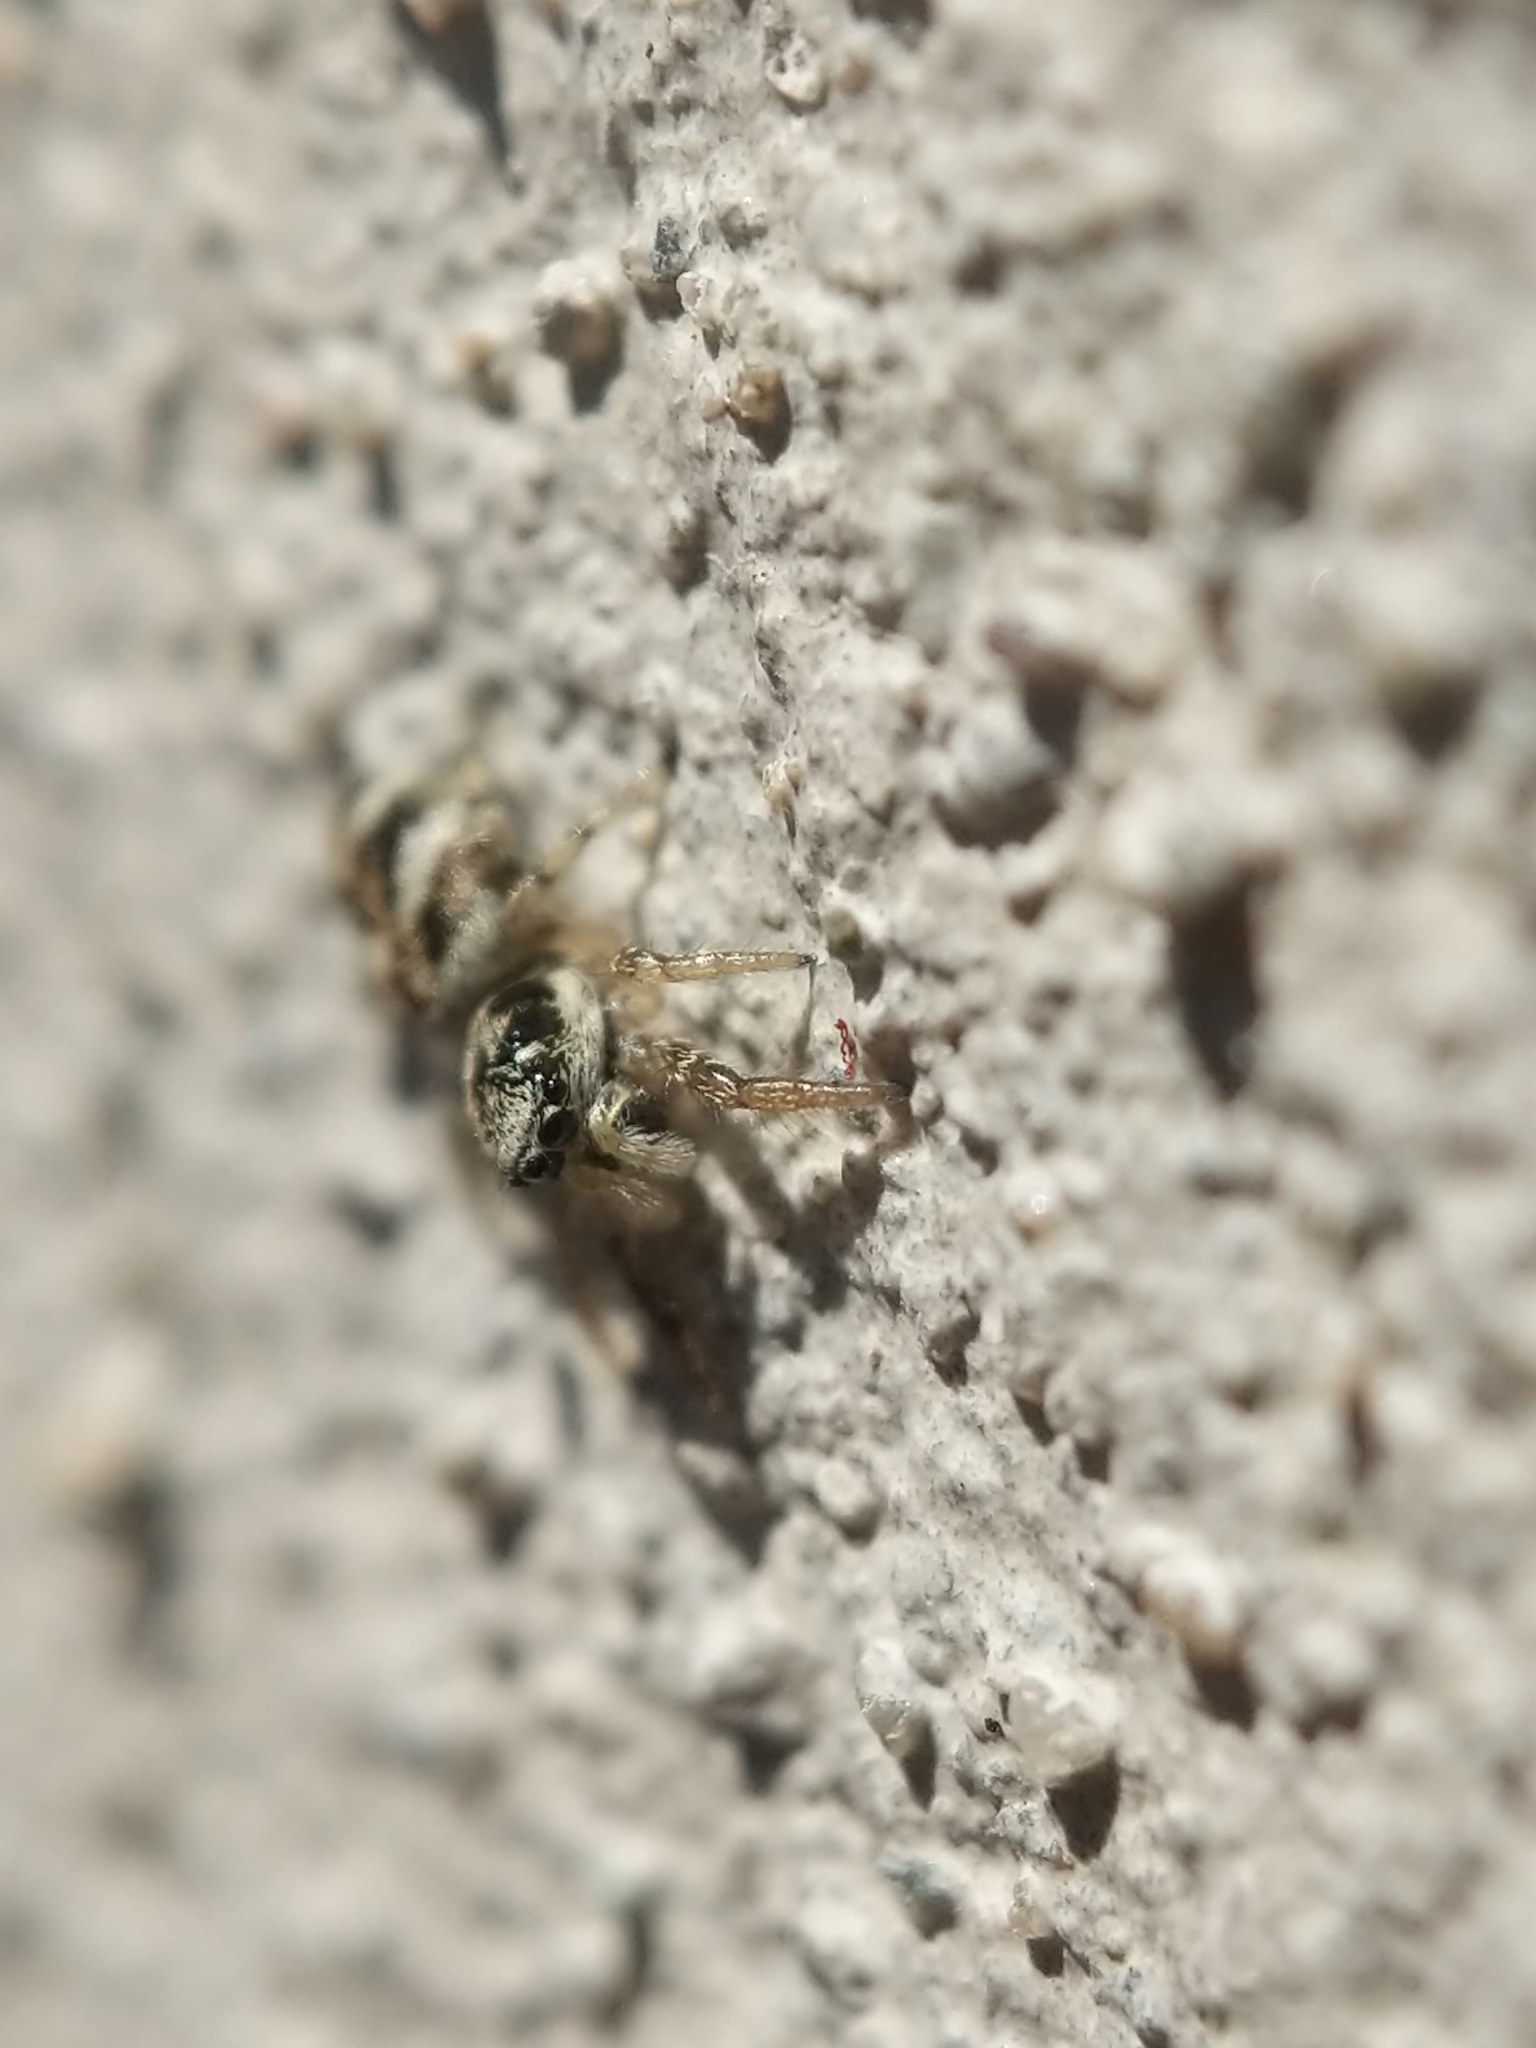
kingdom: Animalia
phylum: Arthropoda
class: Arachnida
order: Araneae
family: Salticidae
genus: Salticus
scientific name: Salticus scenicus
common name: Zebra jumper
